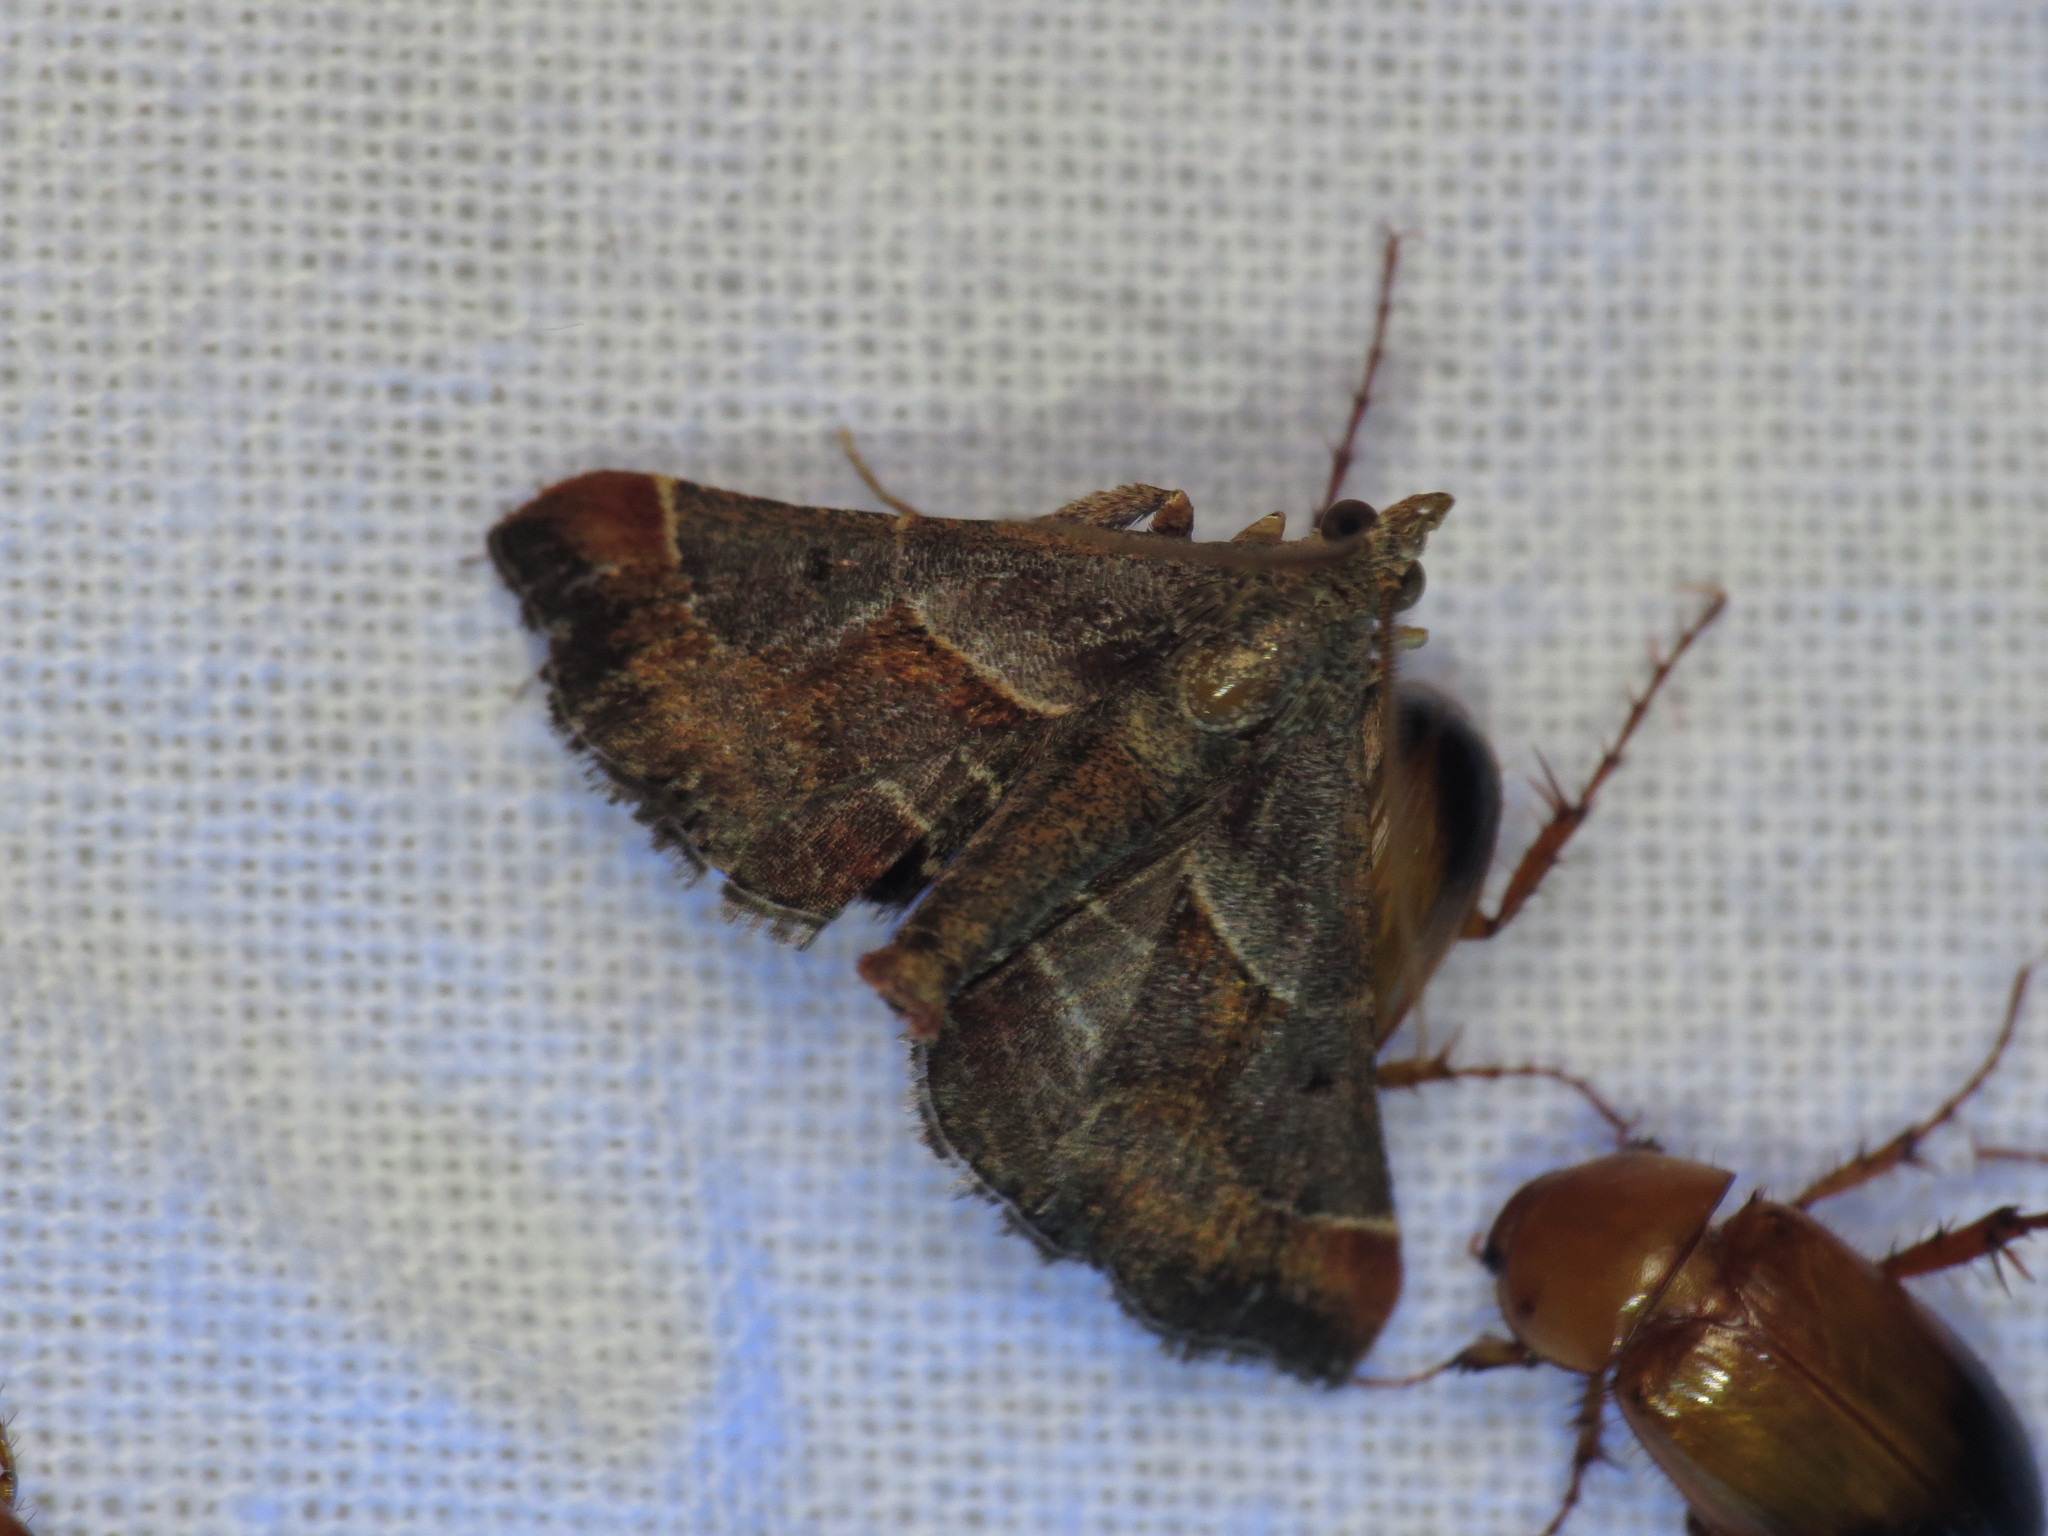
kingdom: Animalia
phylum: Arthropoda
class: Insecta
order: Lepidoptera
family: Pyralidae
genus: Gauna
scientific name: Gauna aegusalis
